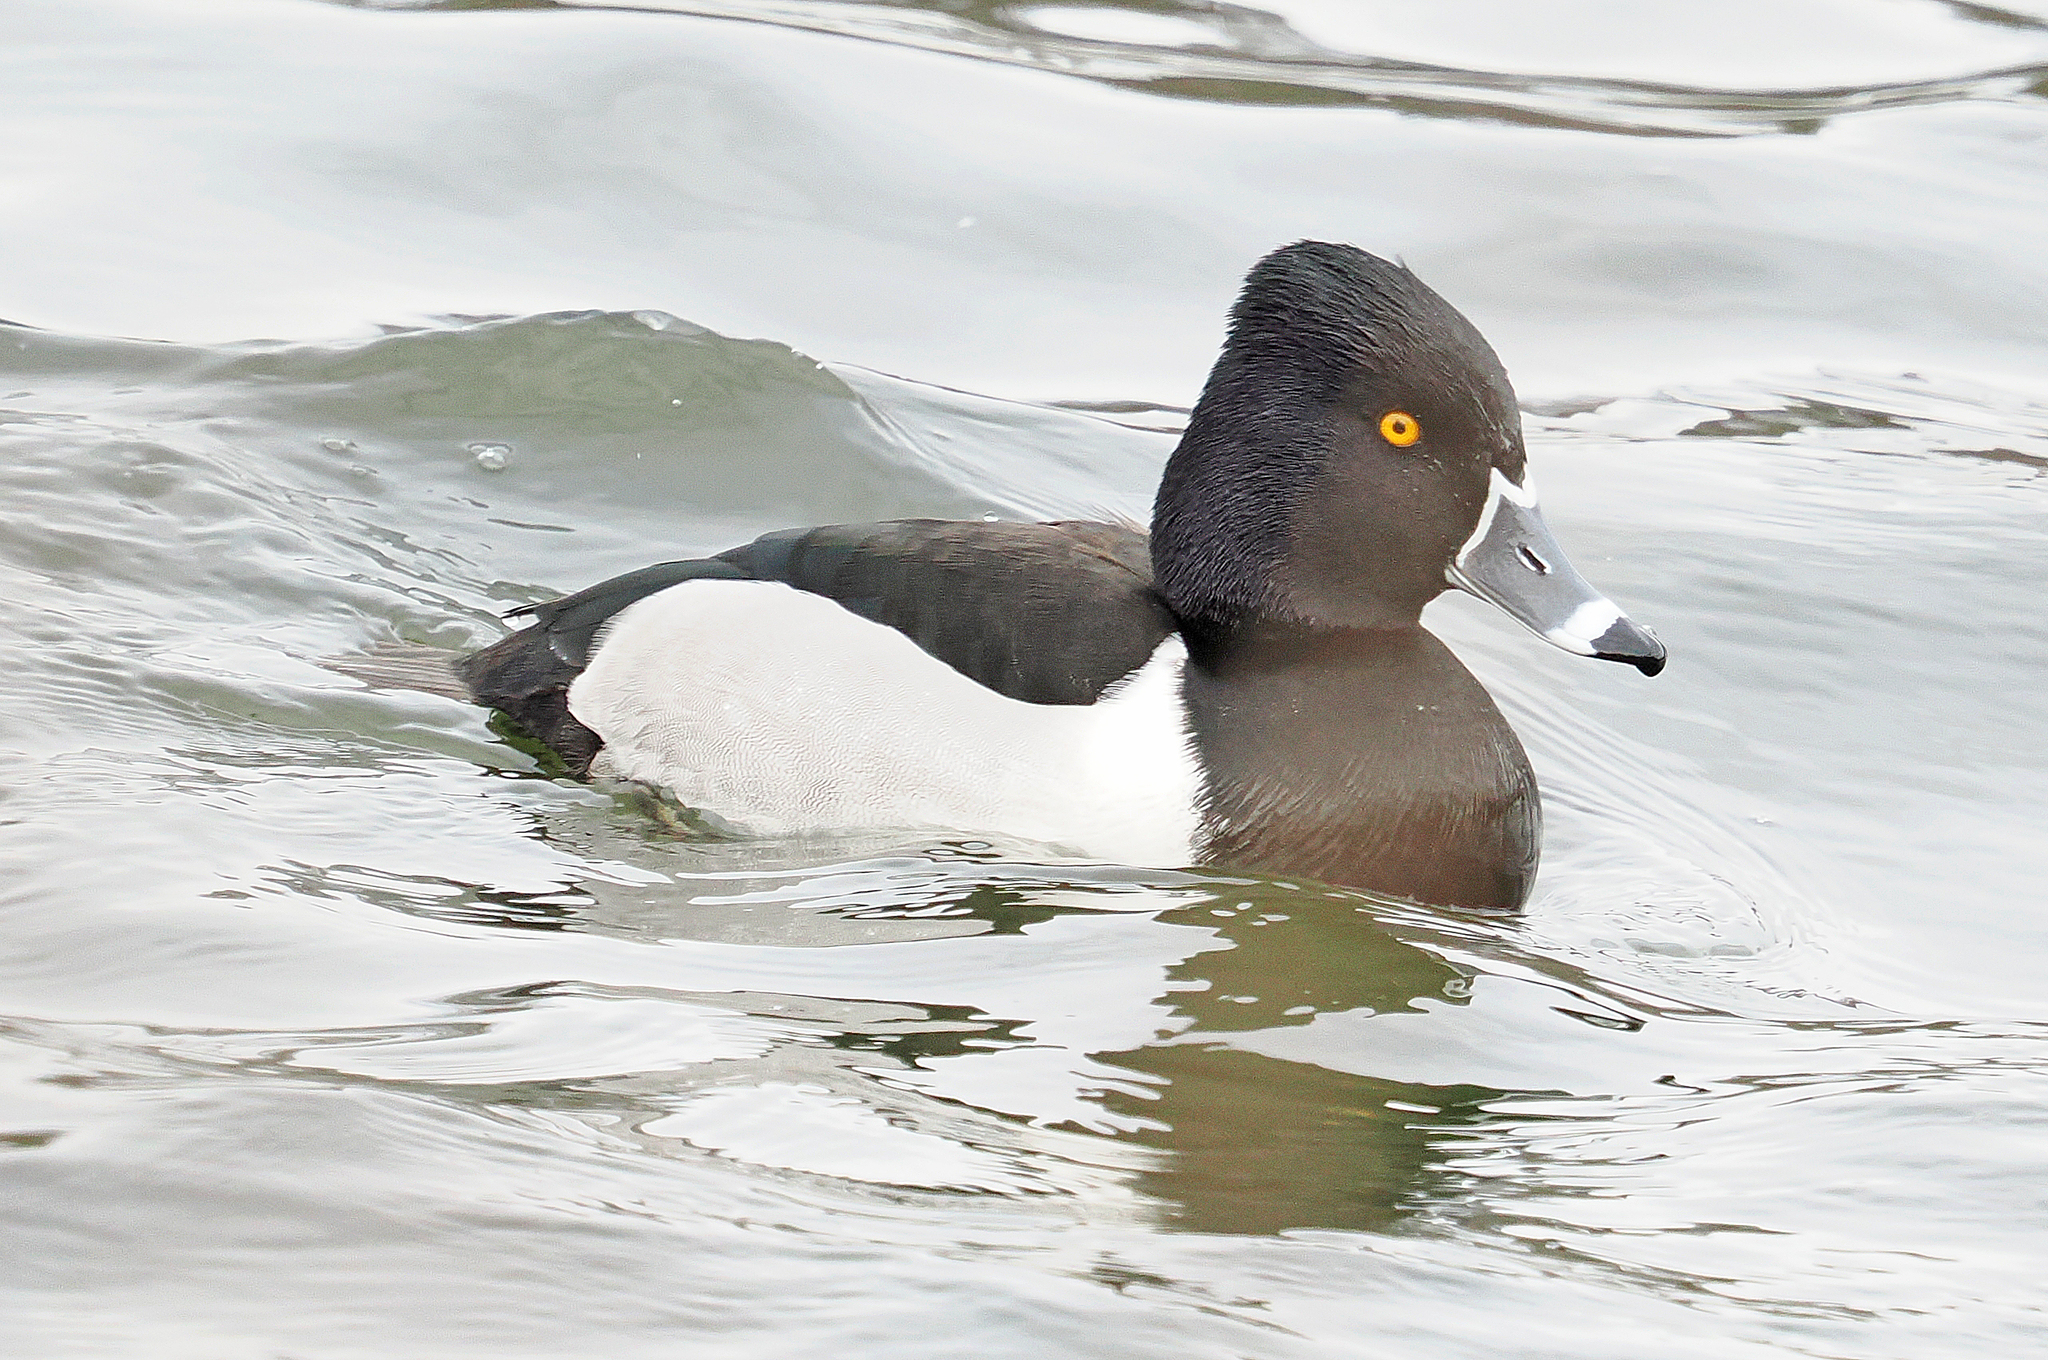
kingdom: Animalia
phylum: Chordata
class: Aves
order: Anseriformes
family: Anatidae
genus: Aythya
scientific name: Aythya collaris
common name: Ring-necked duck
